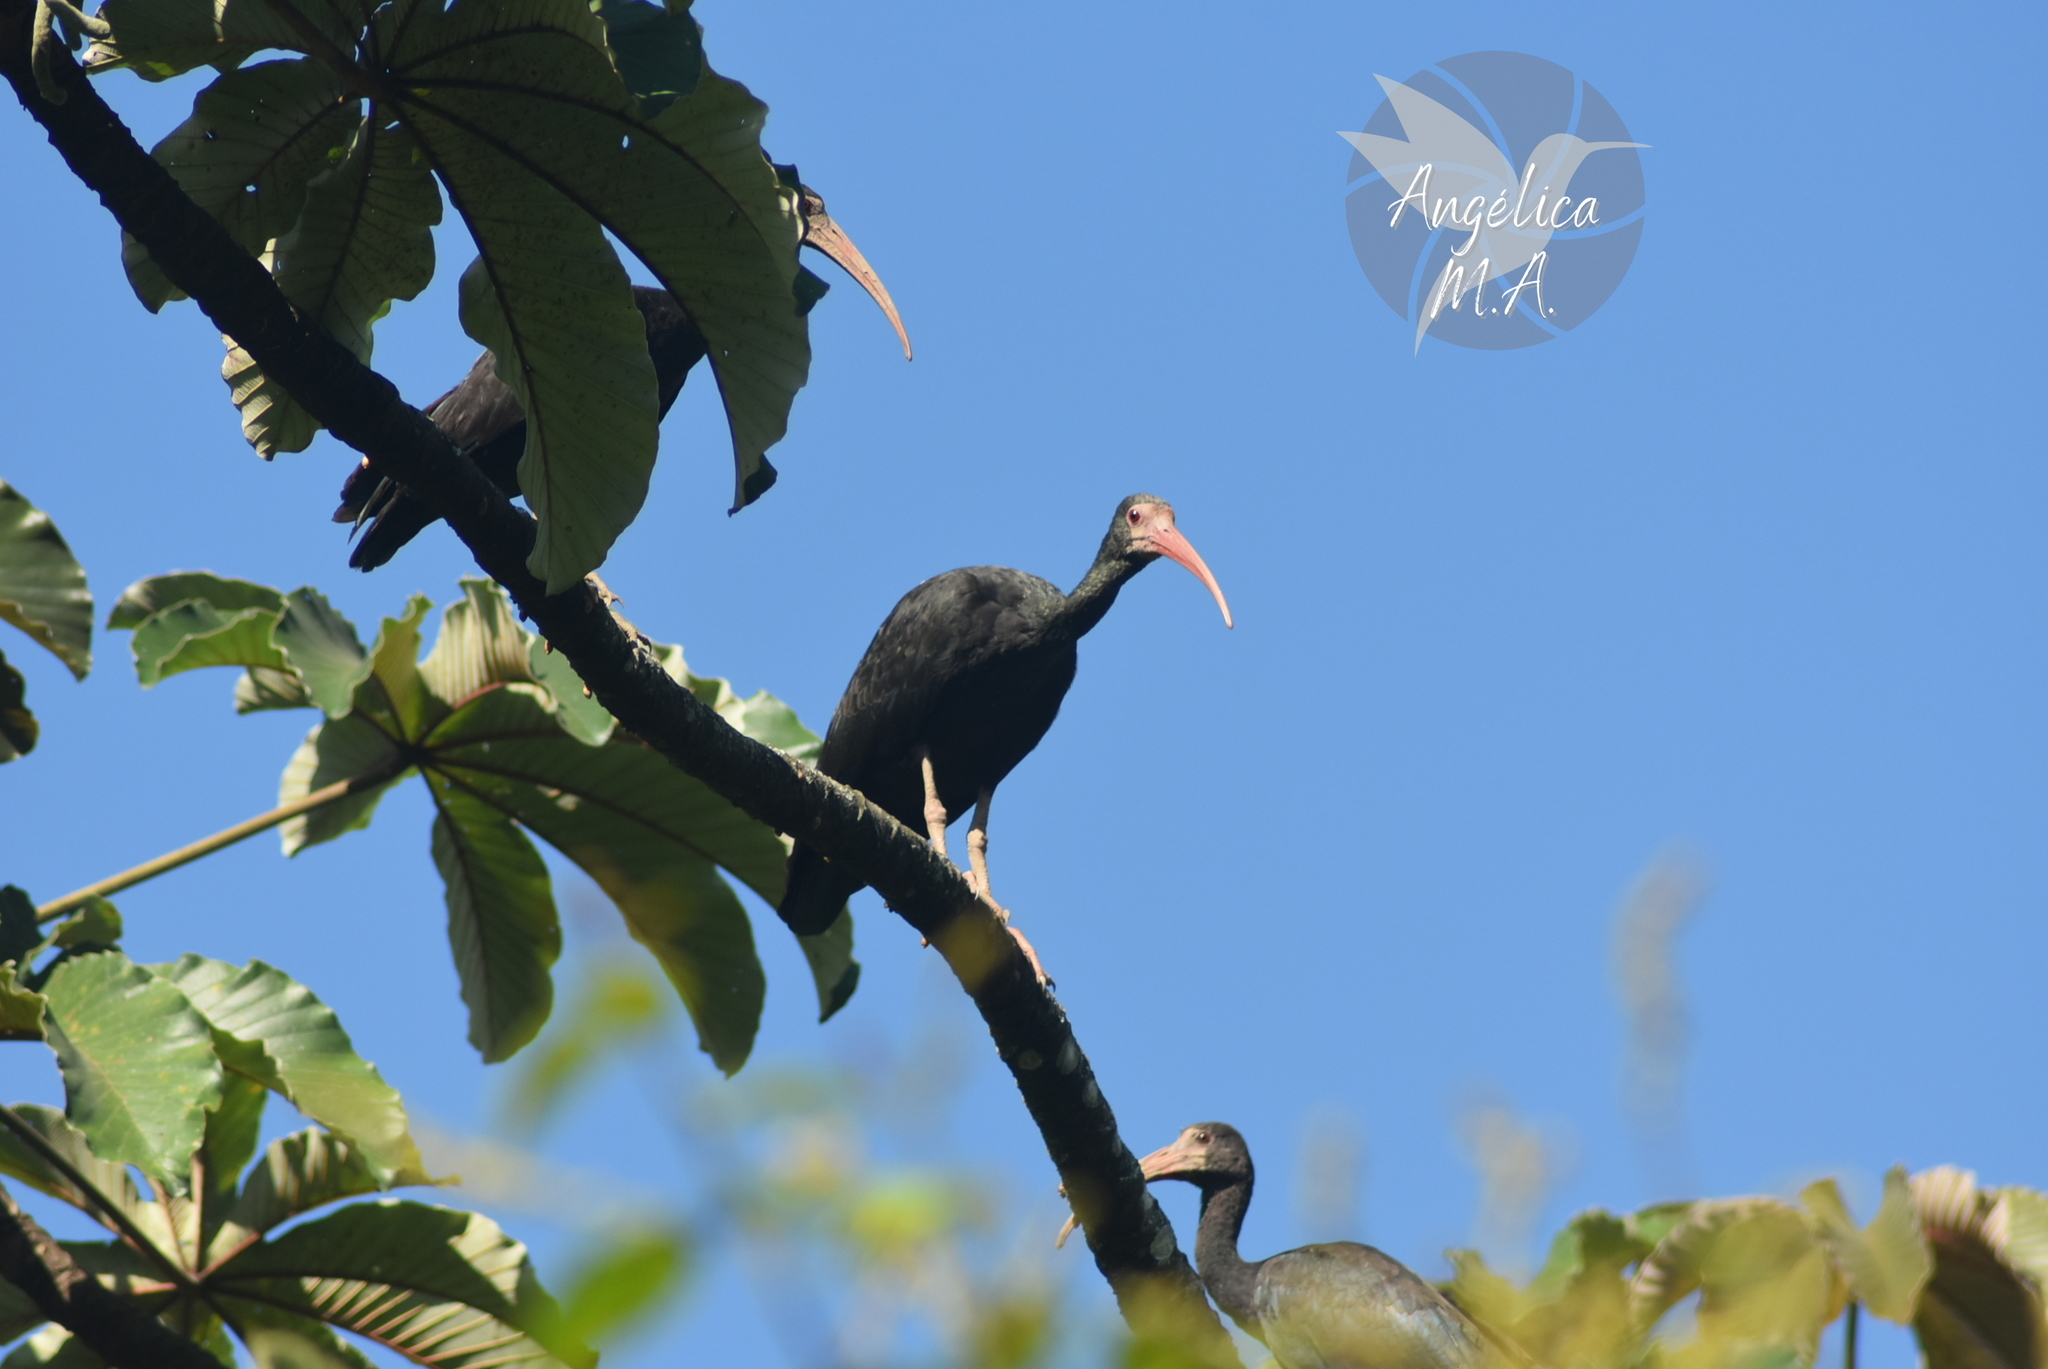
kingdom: Animalia
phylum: Chordata
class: Aves
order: Pelecaniformes
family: Threskiornithidae
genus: Phimosus
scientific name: Phimosus infuscatus
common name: Bare-faced ibis
